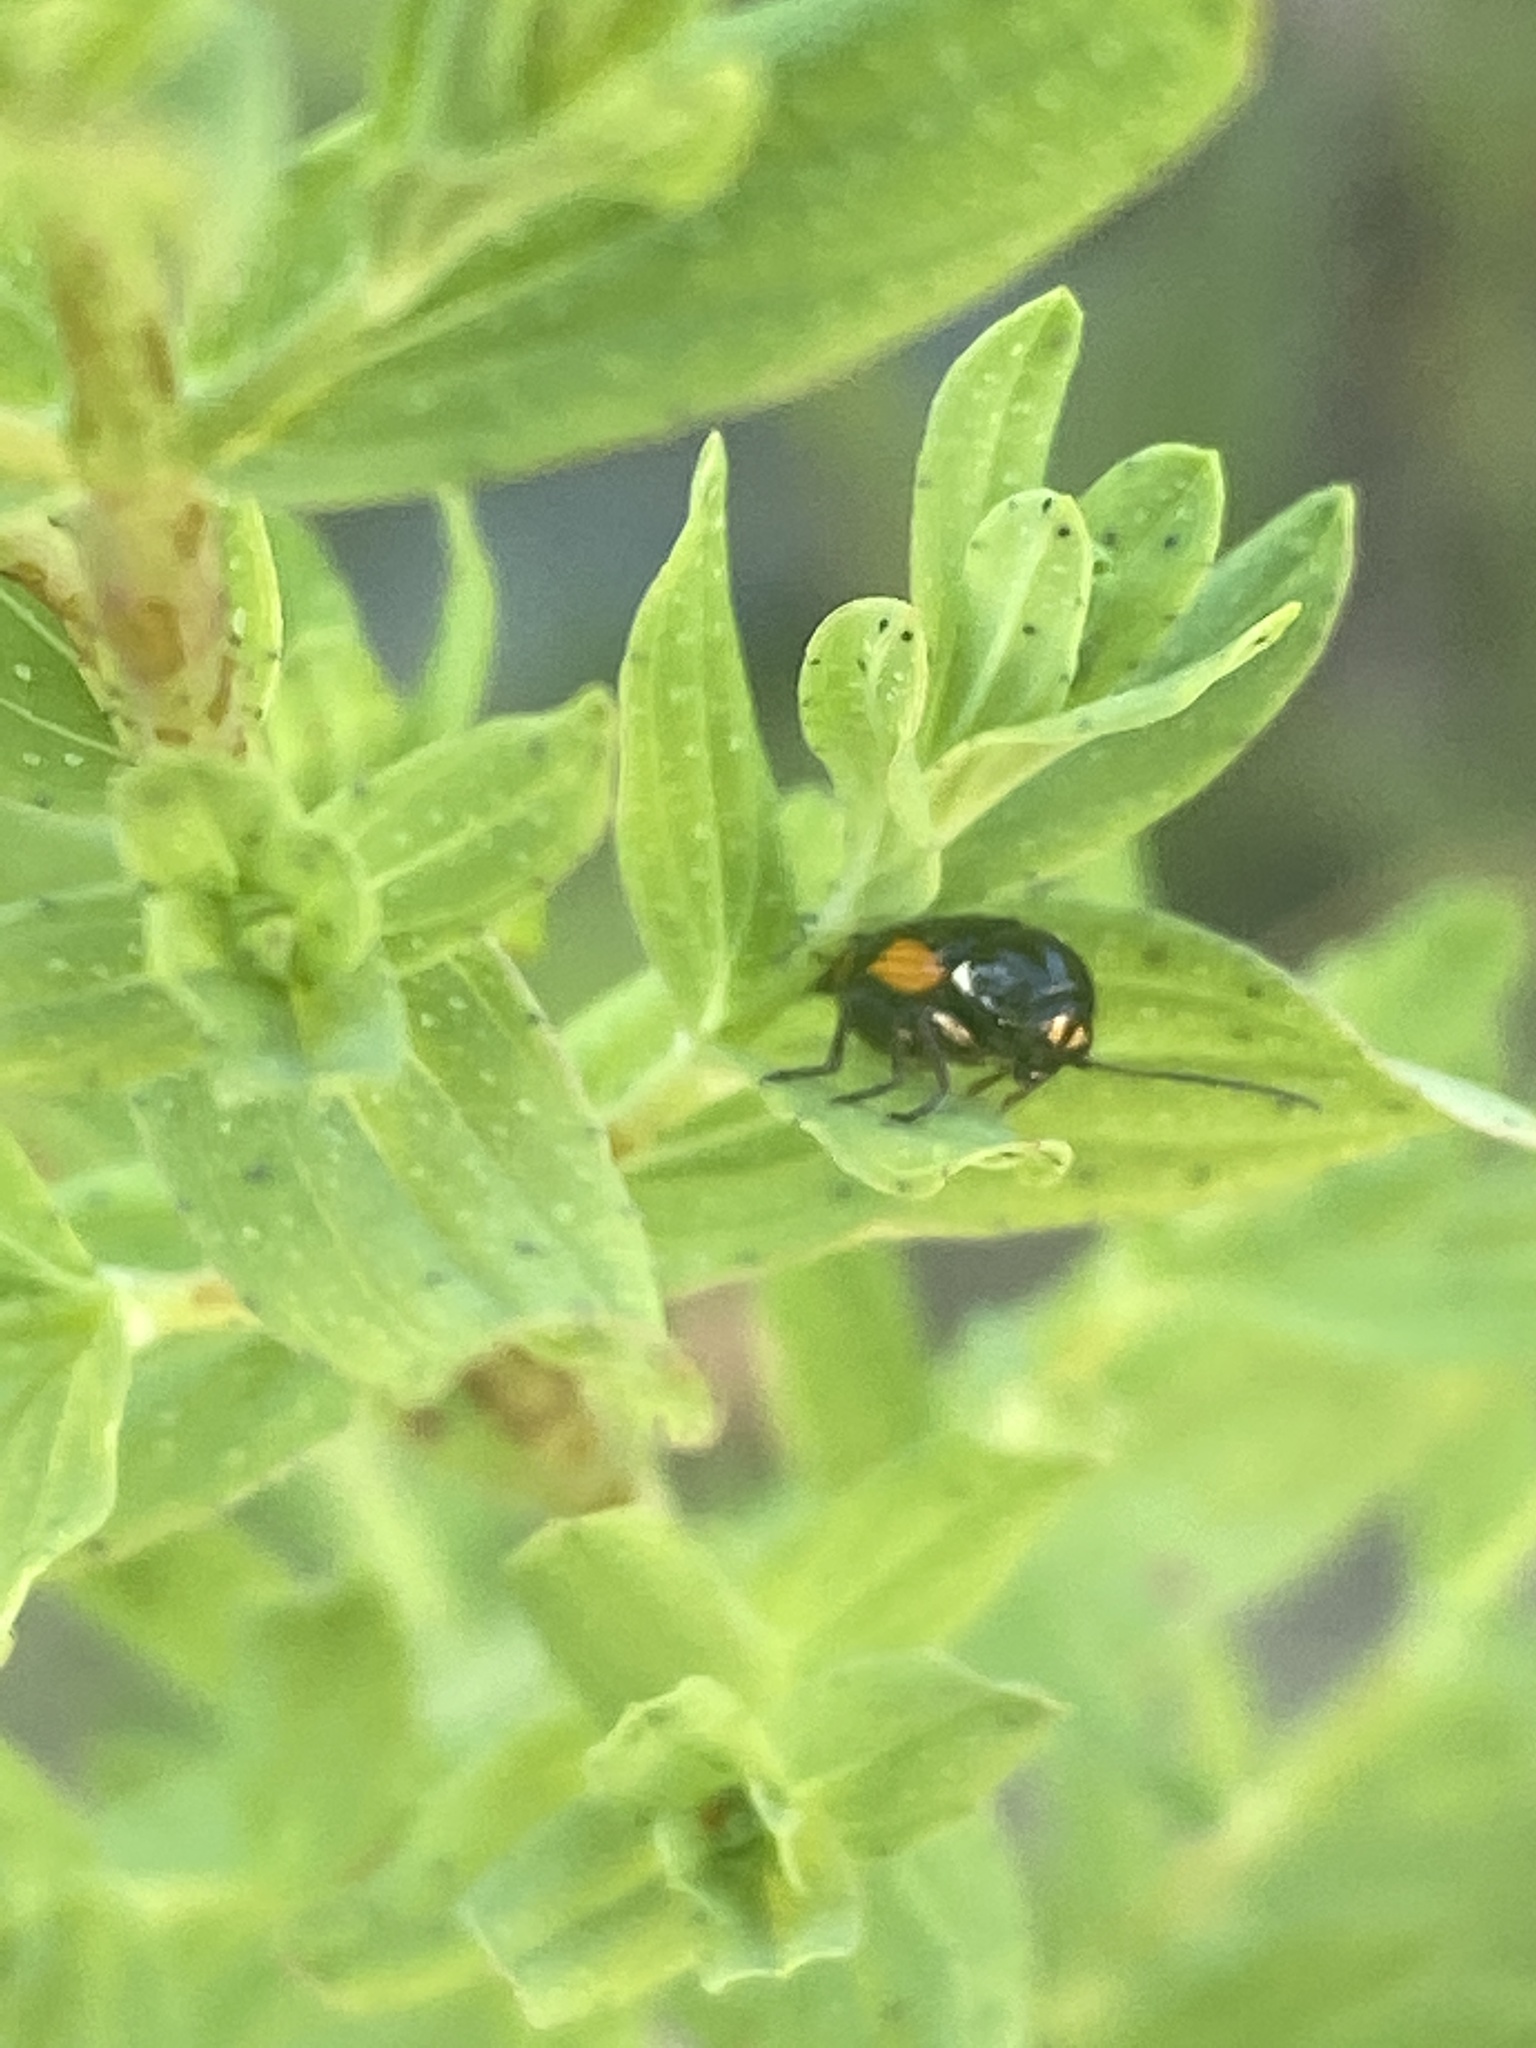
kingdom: Animalia
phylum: Arthropoda
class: Insecta
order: Coleoptera
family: Chrysomelidae
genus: Cryptocephalus
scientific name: Cryptocephalus moraei
